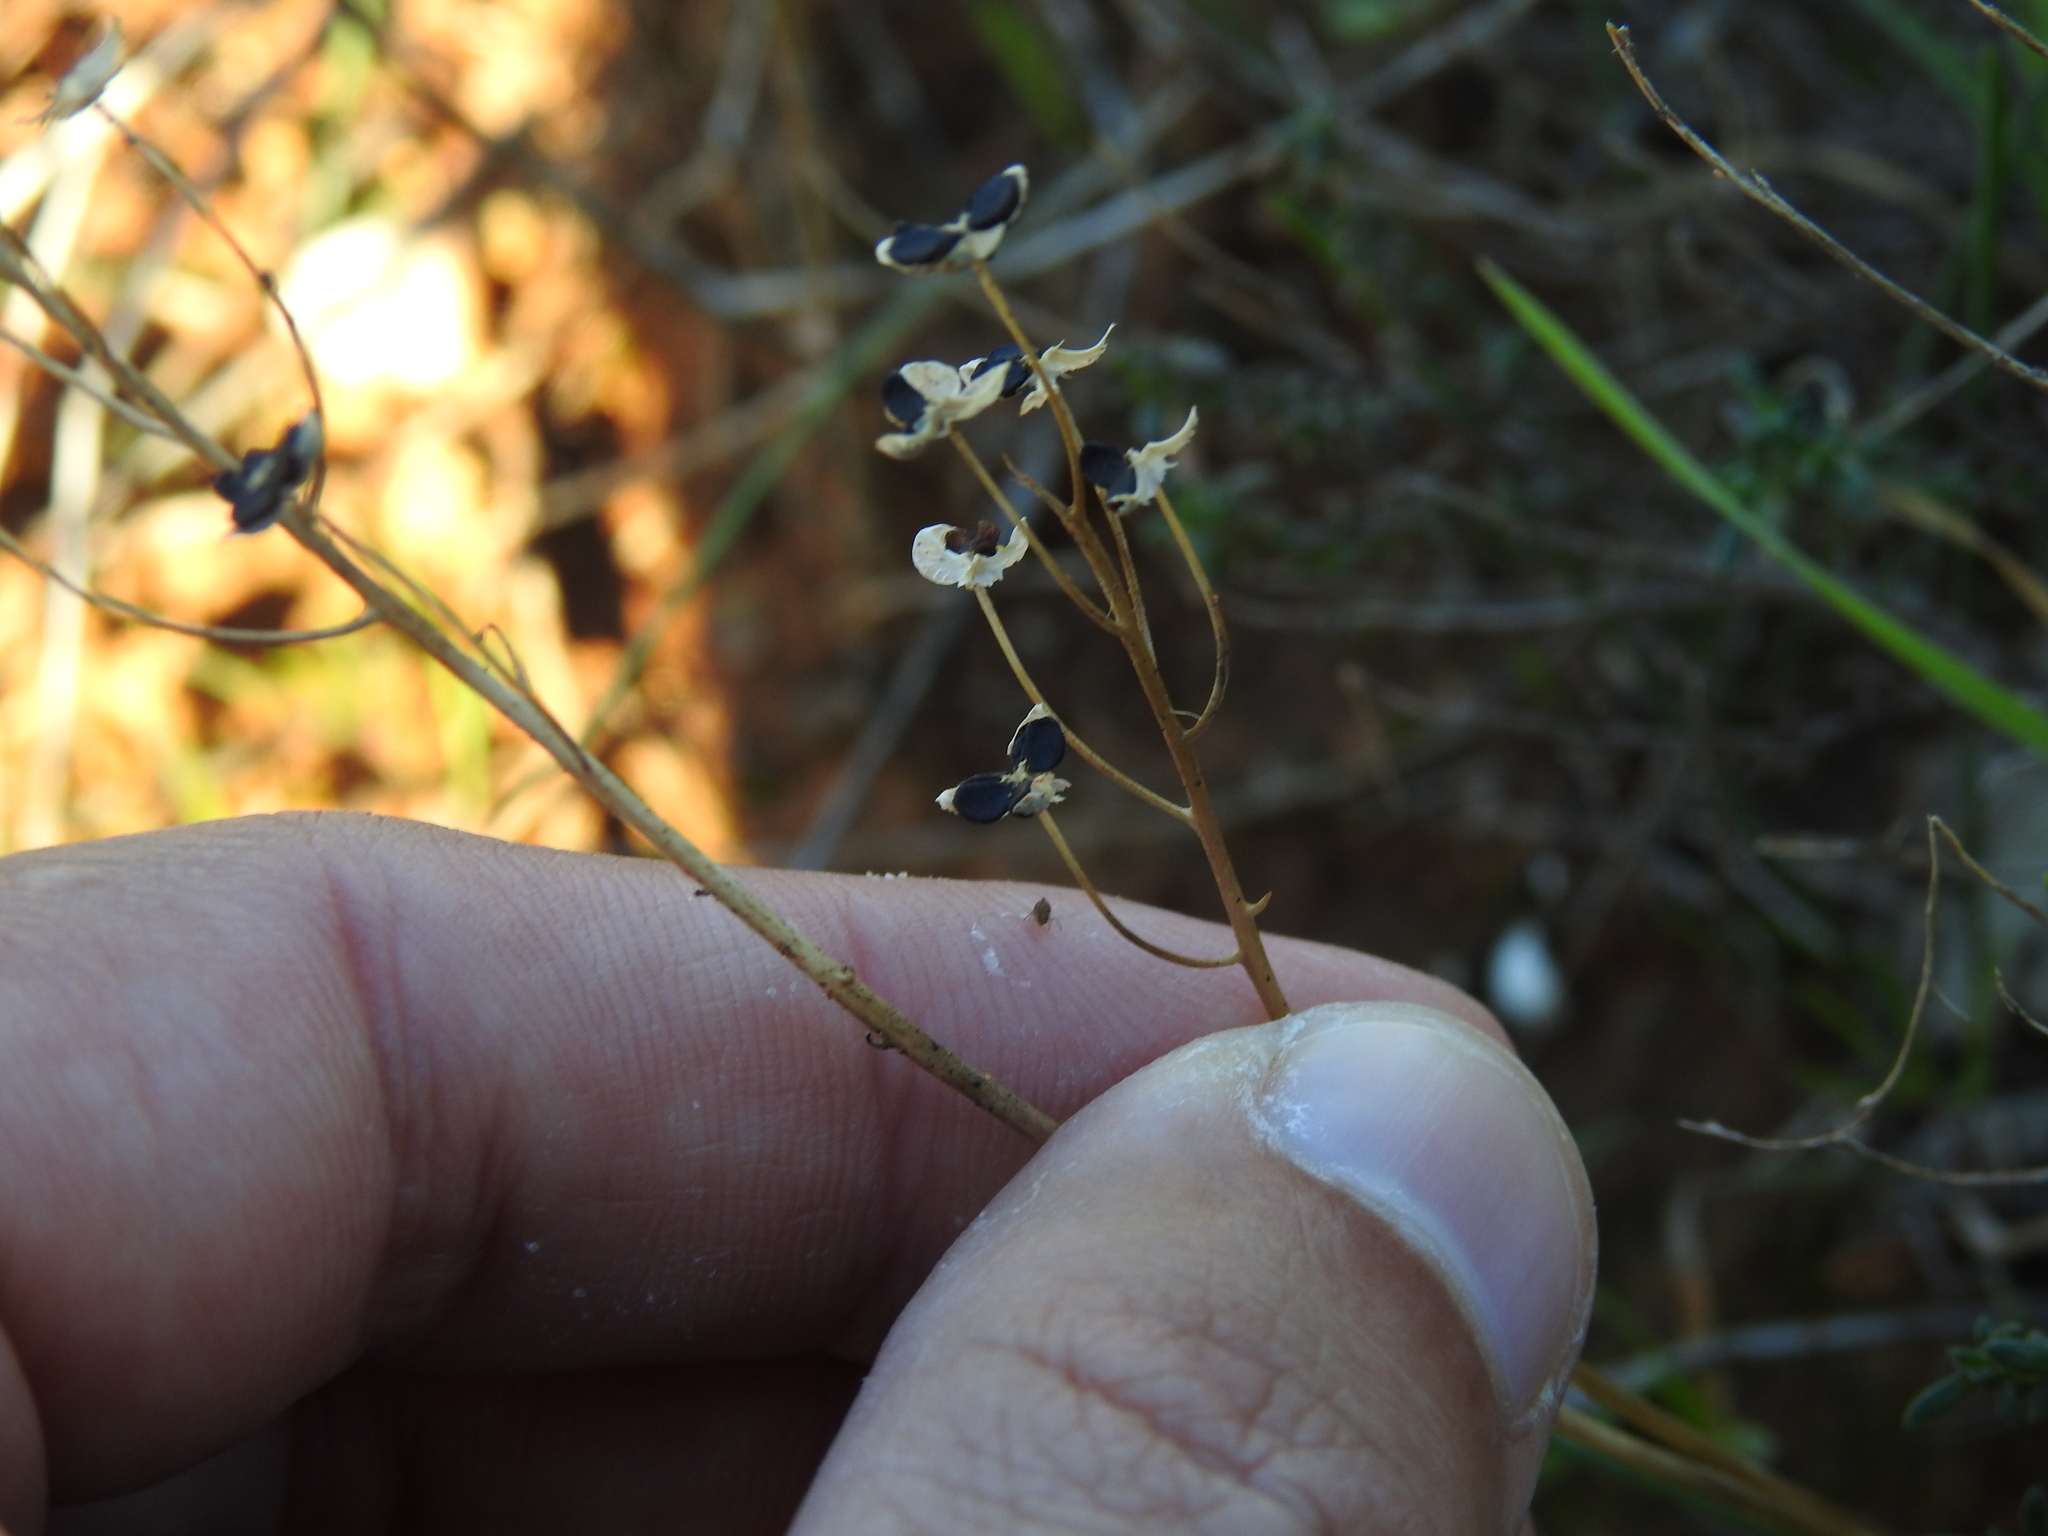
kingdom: Plantae
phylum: Tracheophyta
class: Liliopsida
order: Asparagales
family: Asparagaceae
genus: Prospero
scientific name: Prospero autumnale
